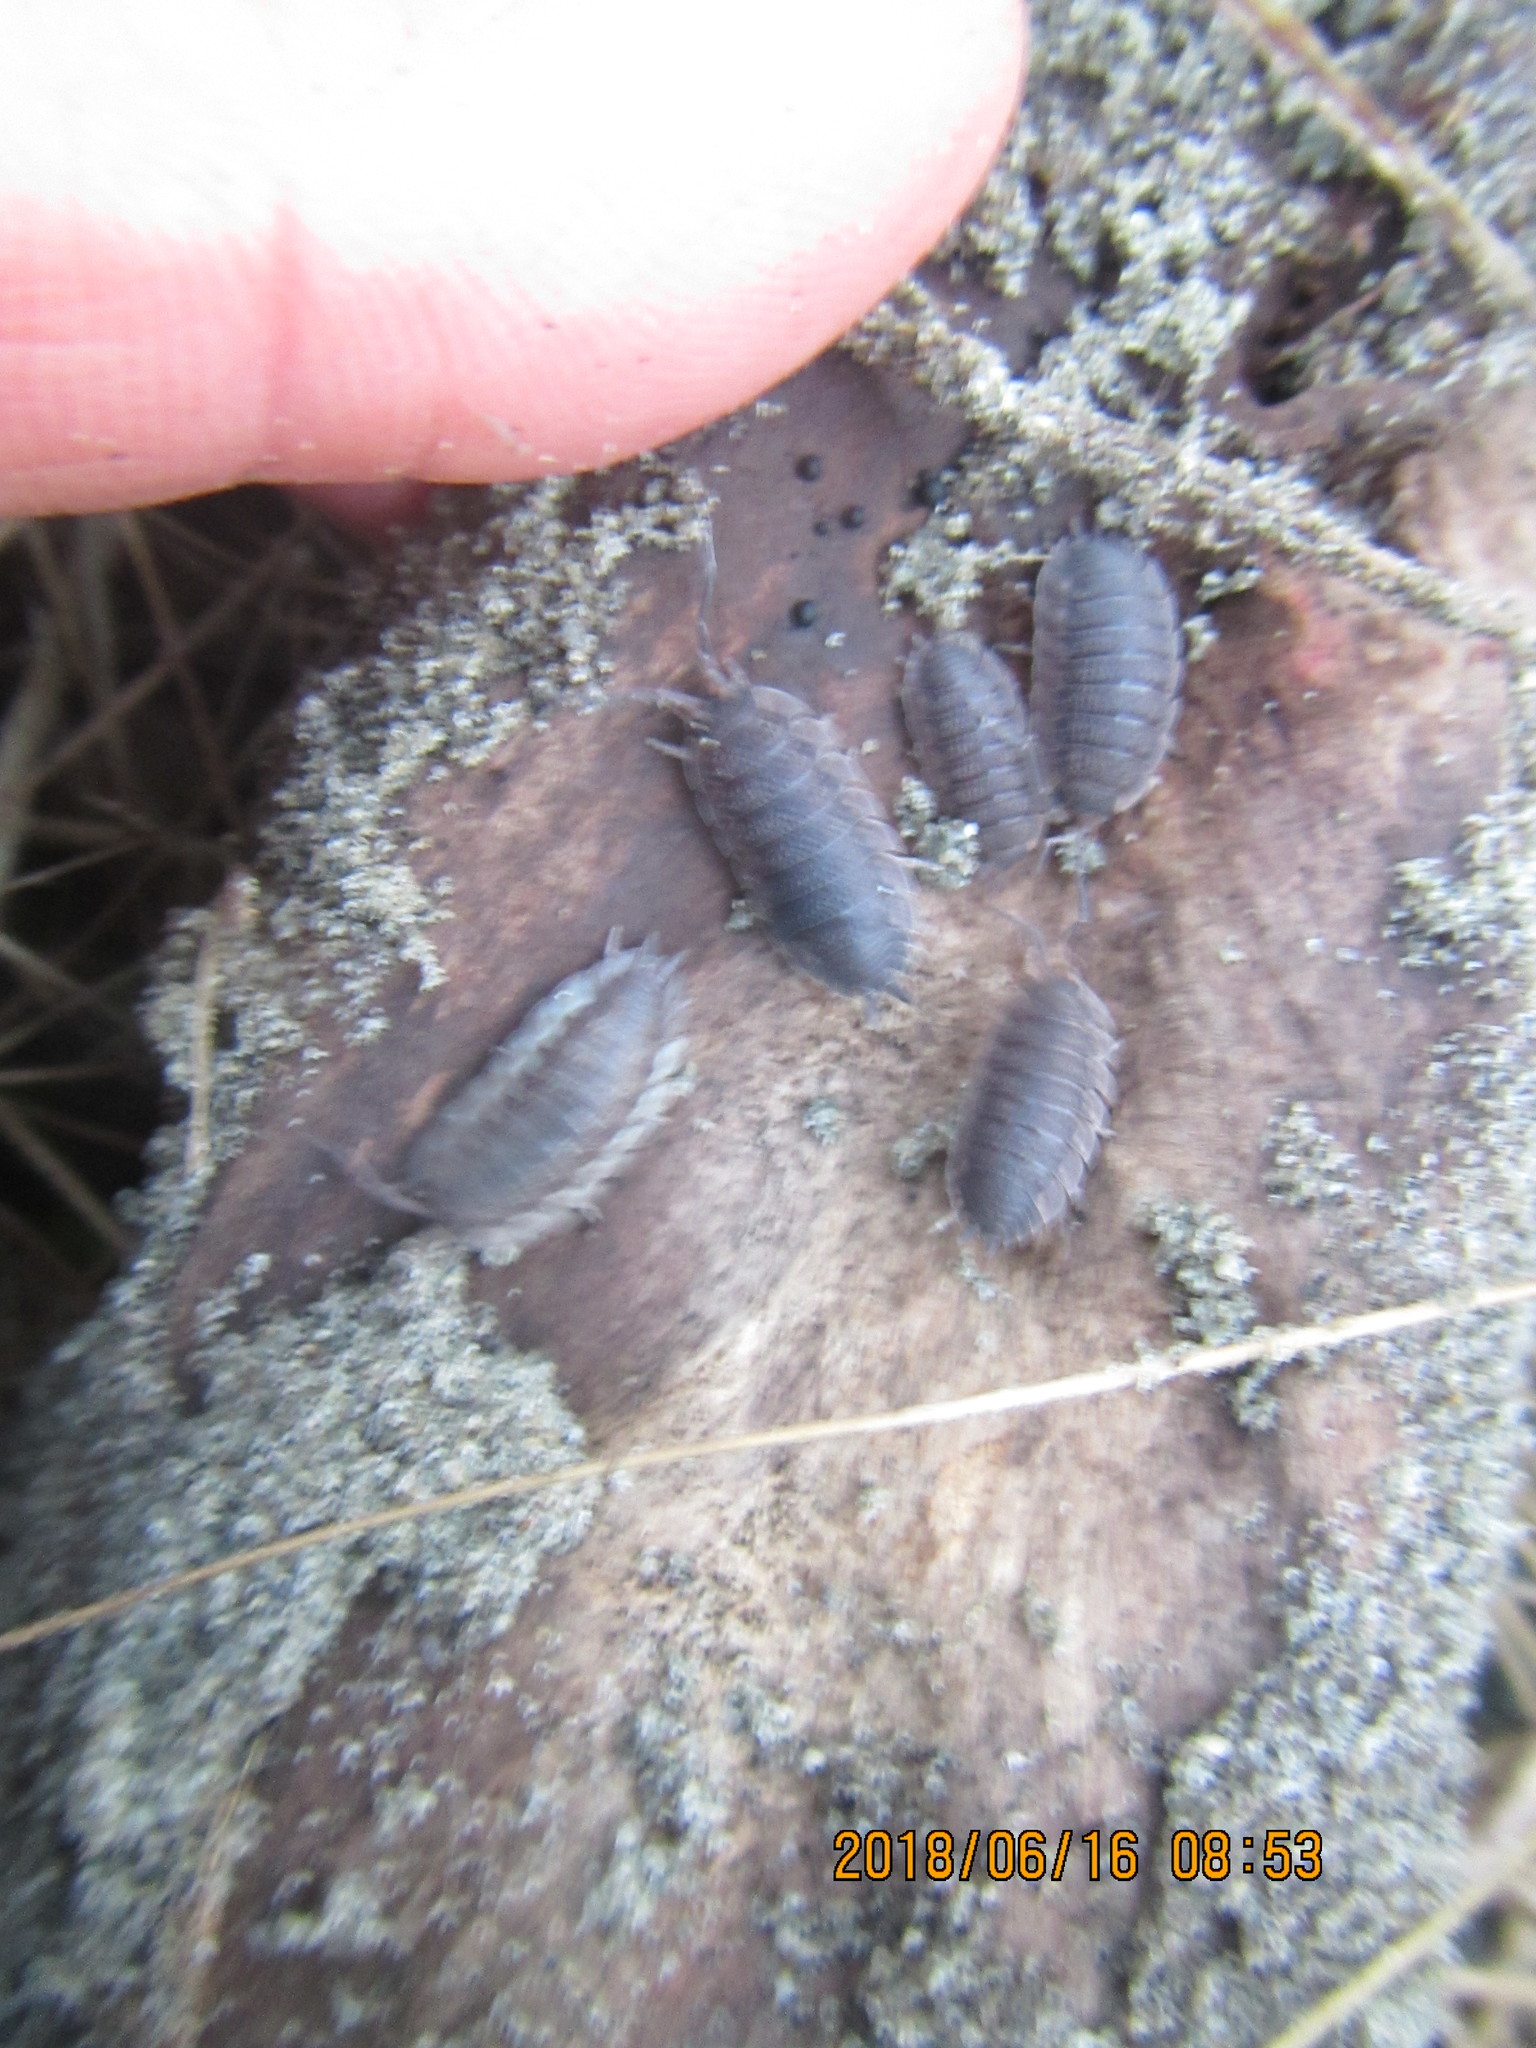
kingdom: Animalia
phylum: Arthropoda
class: Malacostraca
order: Isopoda
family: Porcellionidae
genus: Porcellio
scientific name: Porcellio scaber
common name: Common rough woodlouse
